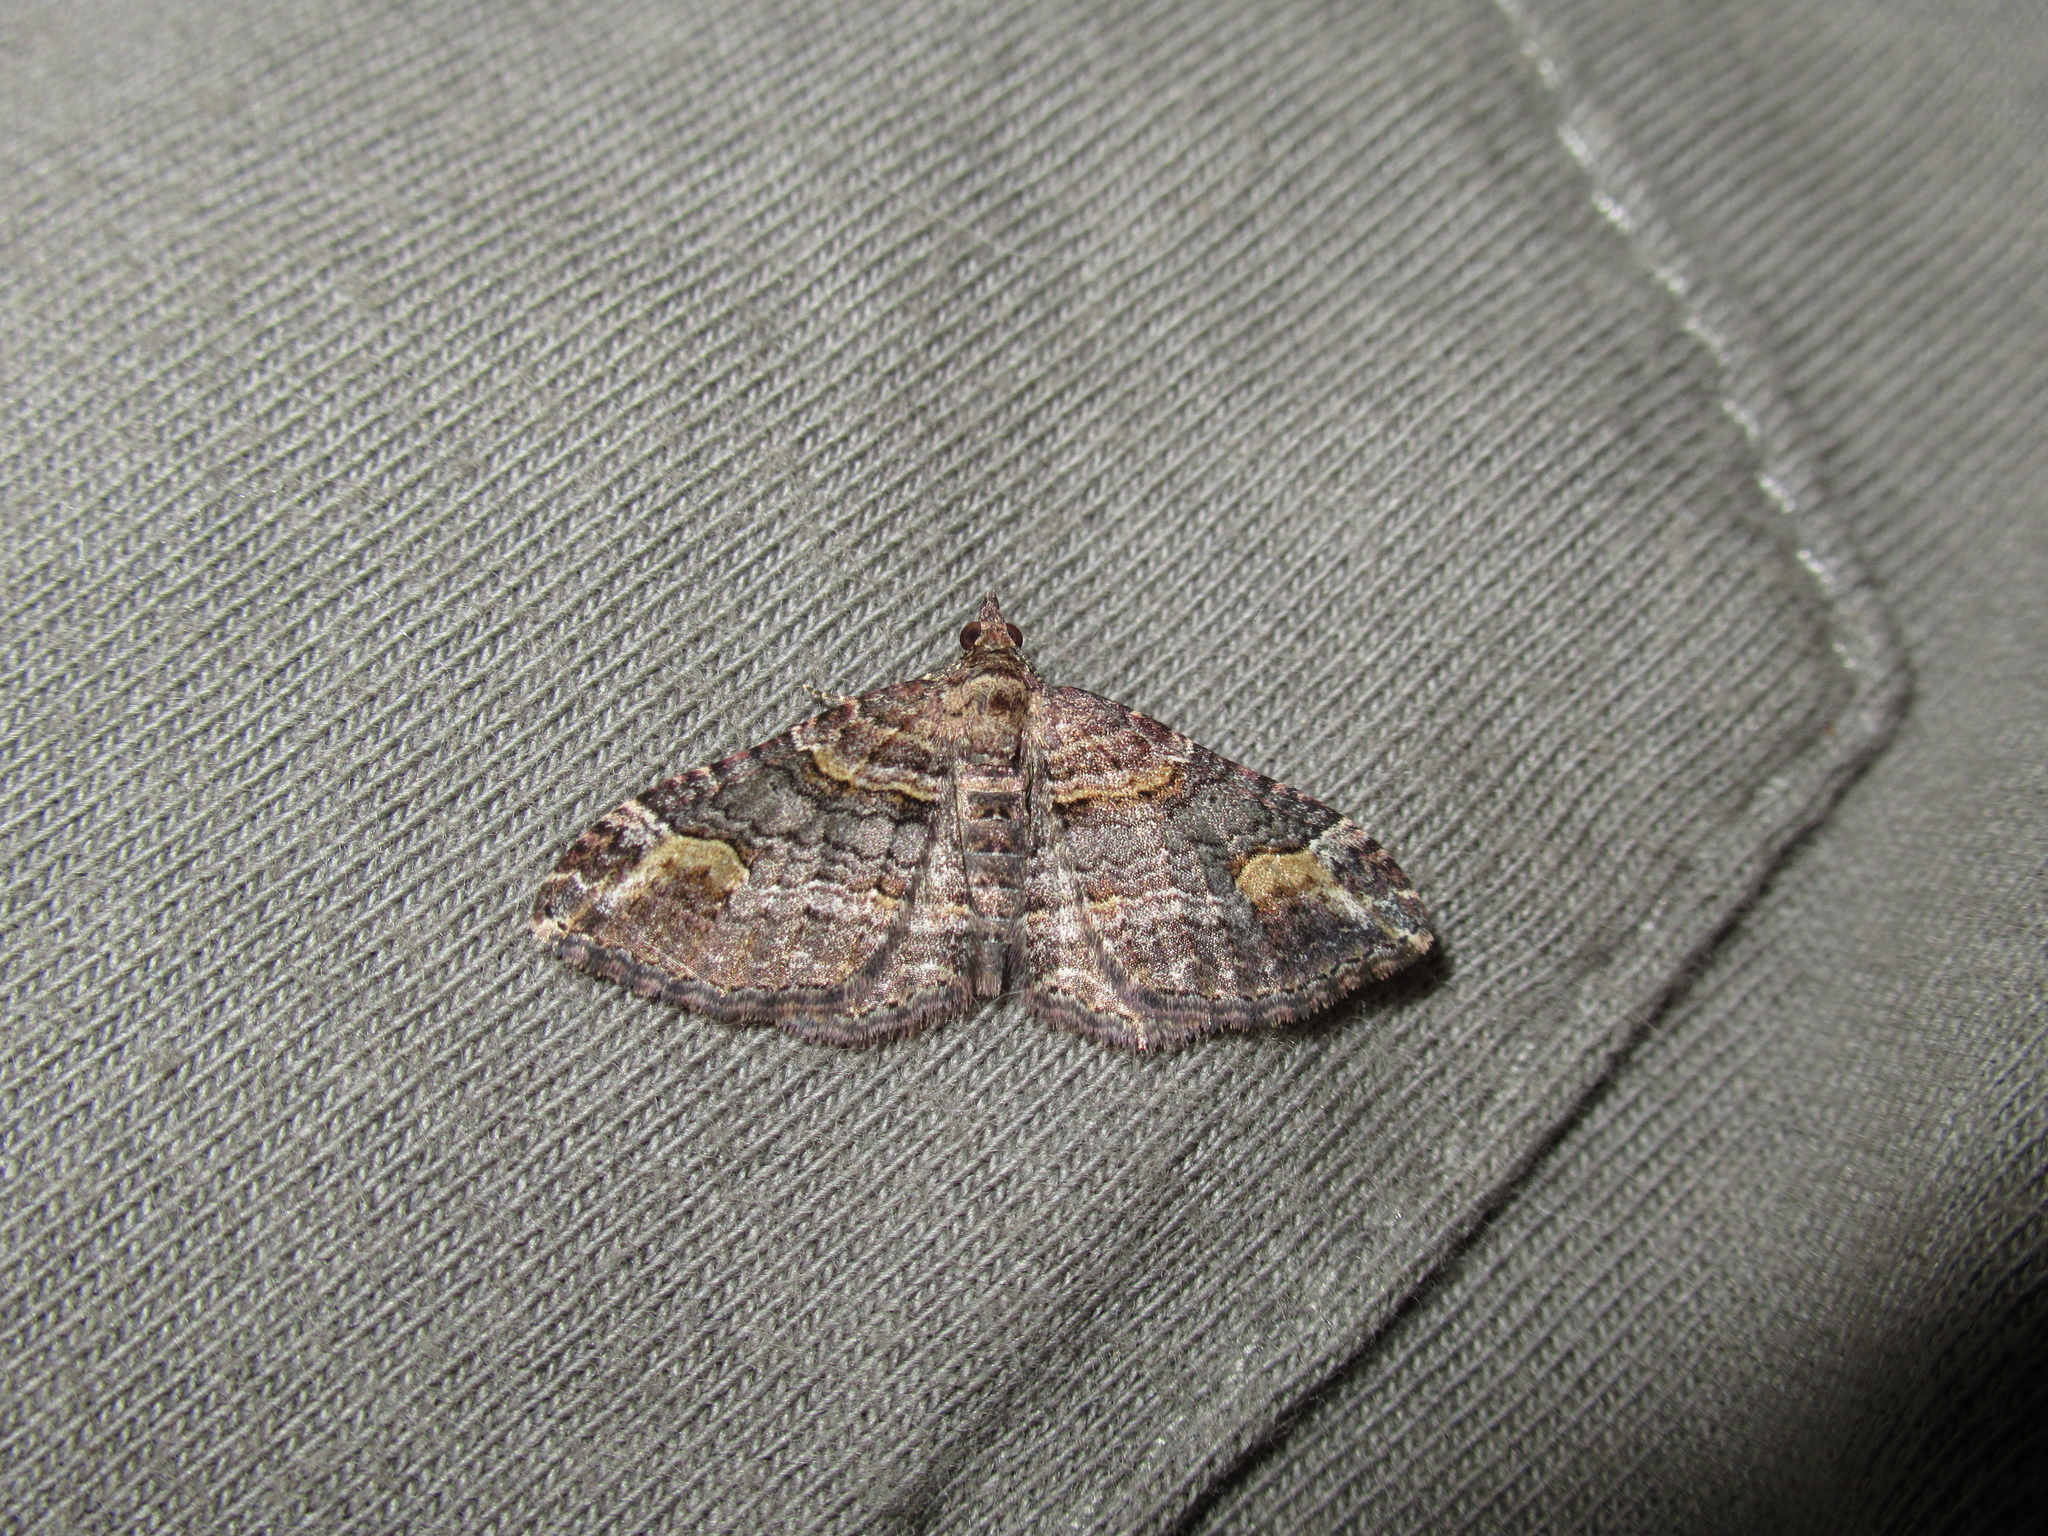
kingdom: Animalia
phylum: Arthropoda
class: Insecta
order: Lepidoptera
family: Geometridae
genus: Epyaxa
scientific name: Epyaxa lucidata
